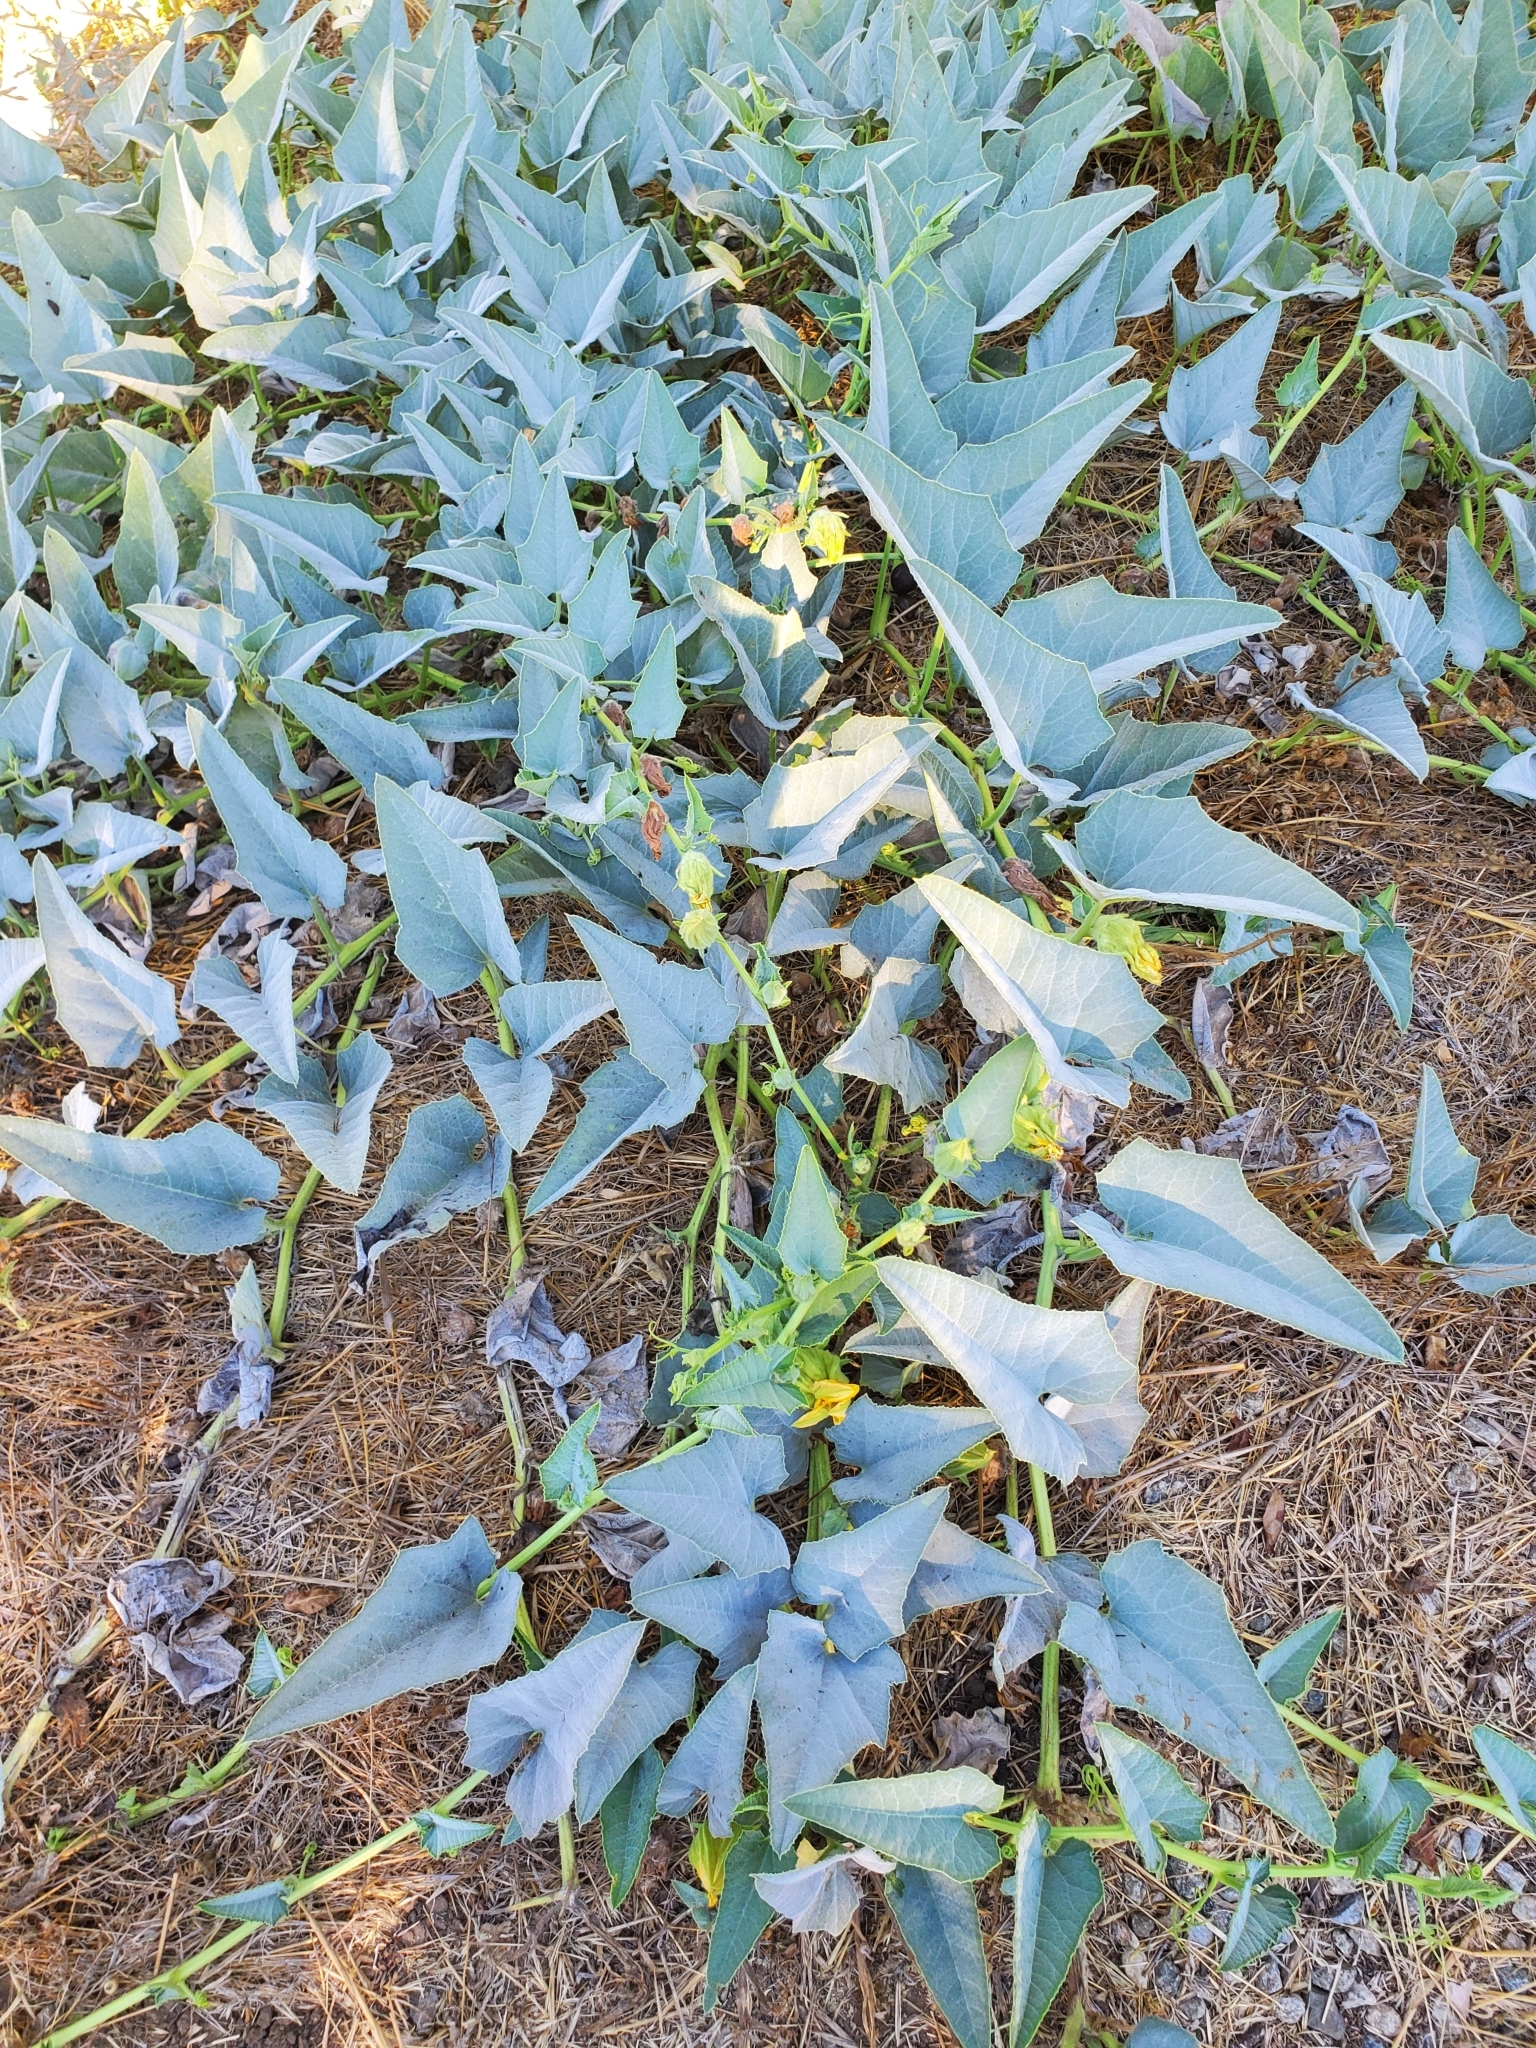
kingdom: Plantae
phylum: Tracheophyta
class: Magnoliopsida
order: Cucurbitales
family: Cucurbitaceae
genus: Cucurbita
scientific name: Cucurbita foetidissima
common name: Buffalo gourd
